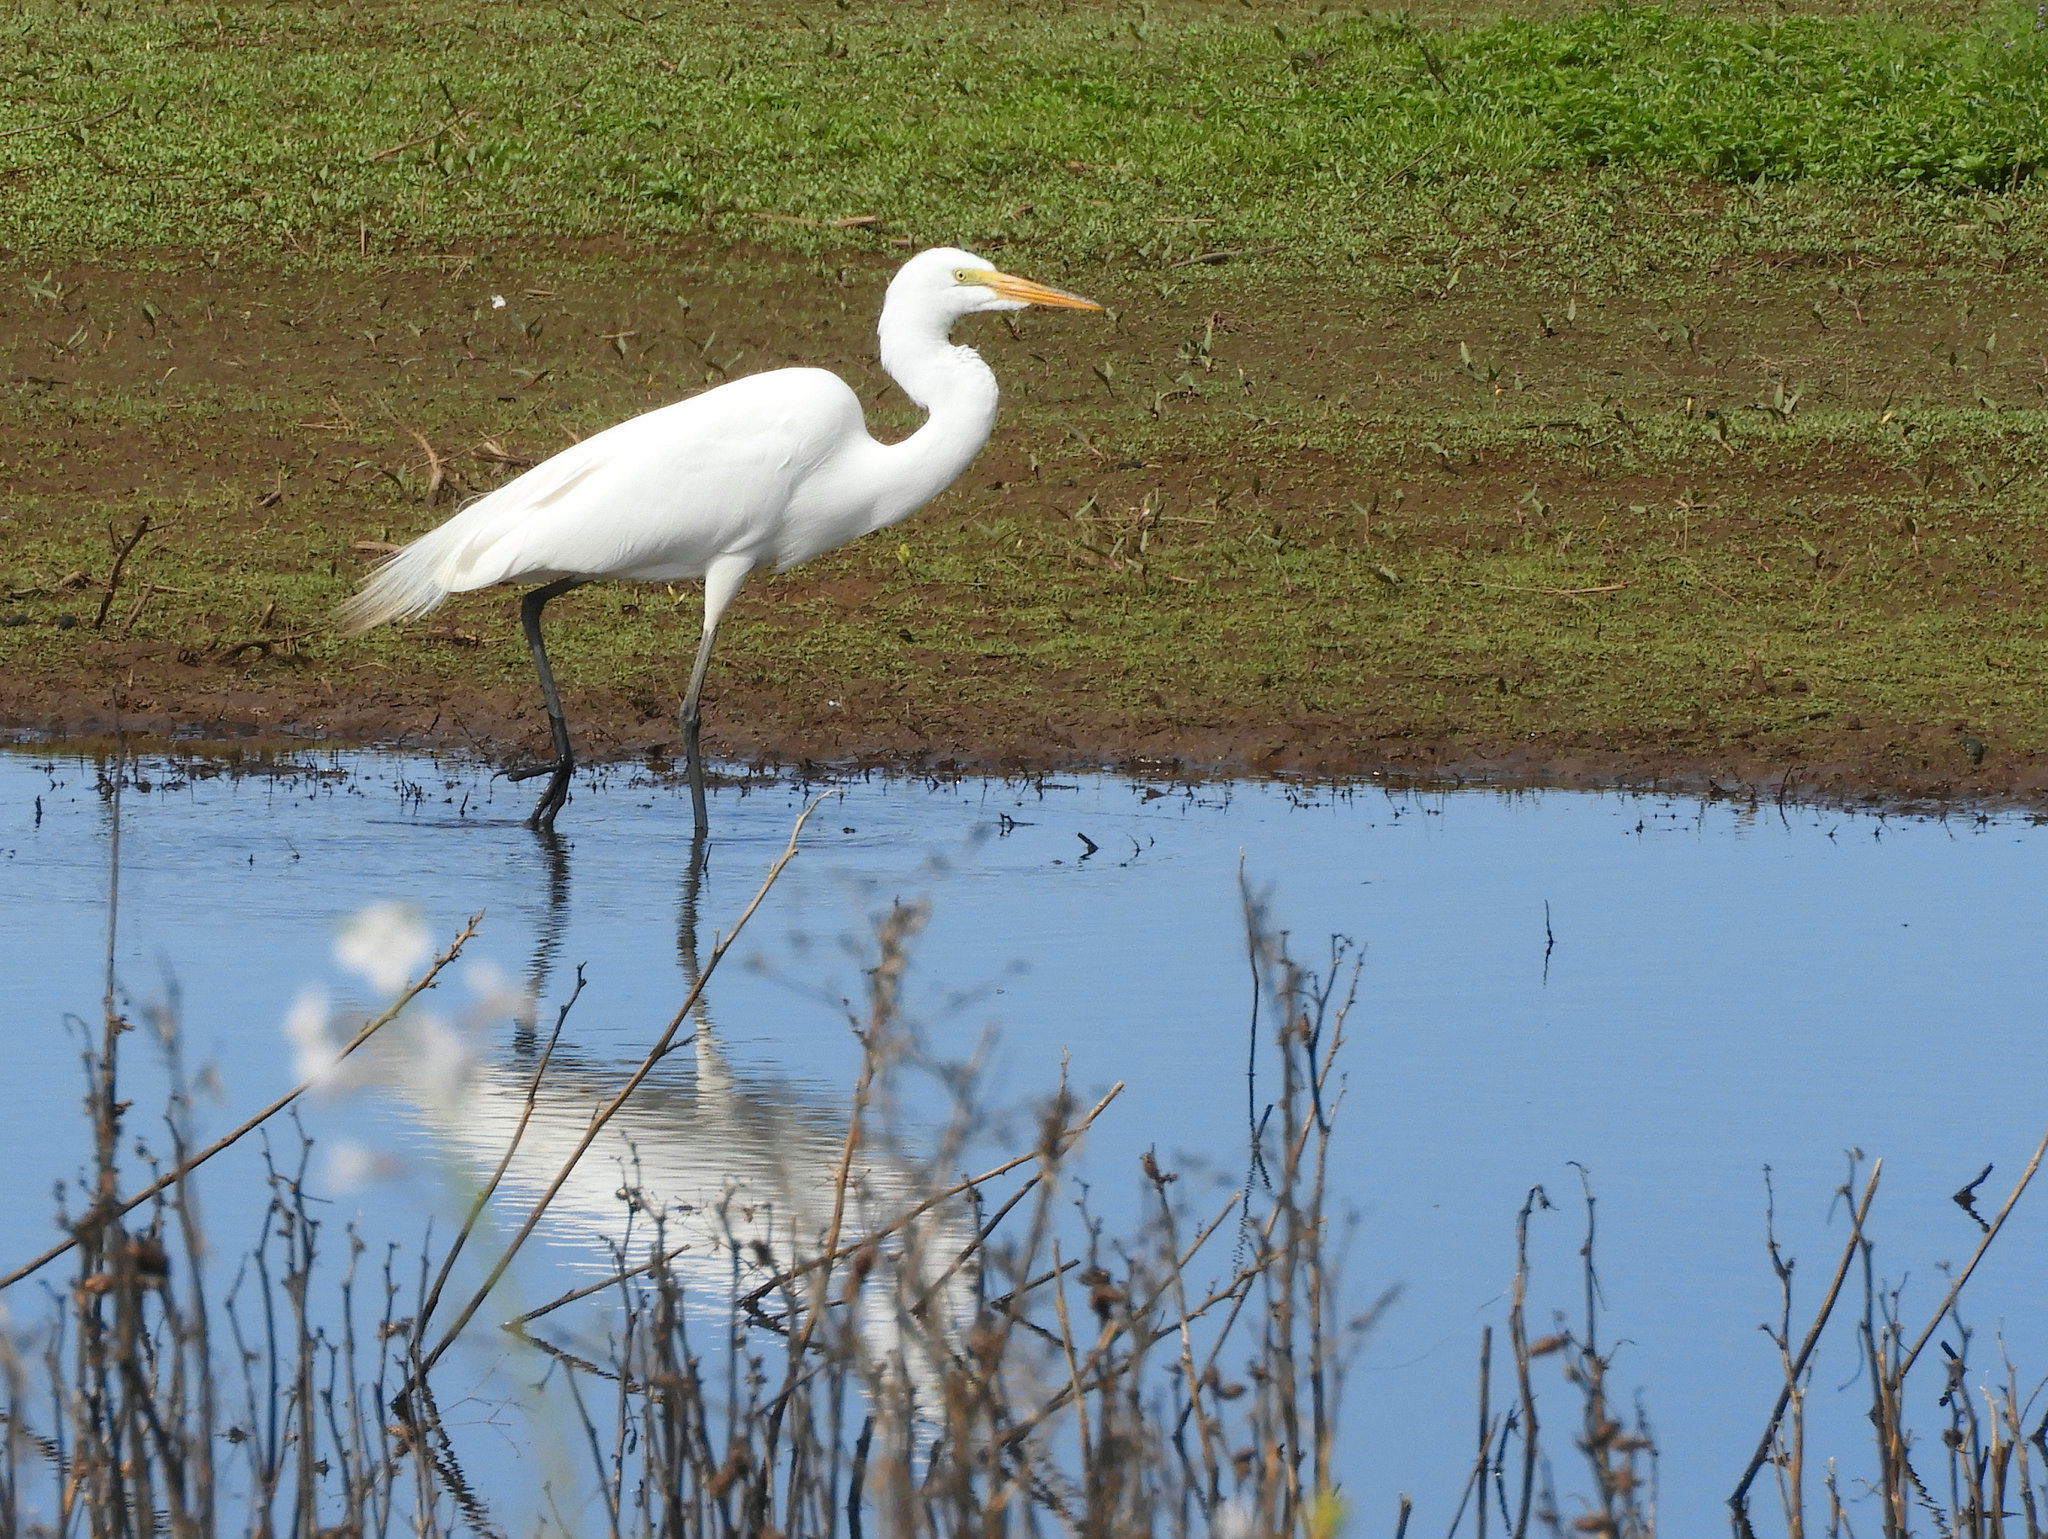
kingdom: Animalia
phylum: Chordata
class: Aves
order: Pelecaniformes
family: Ardeidae
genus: Ardea
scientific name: Ardea alba
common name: Great egret
